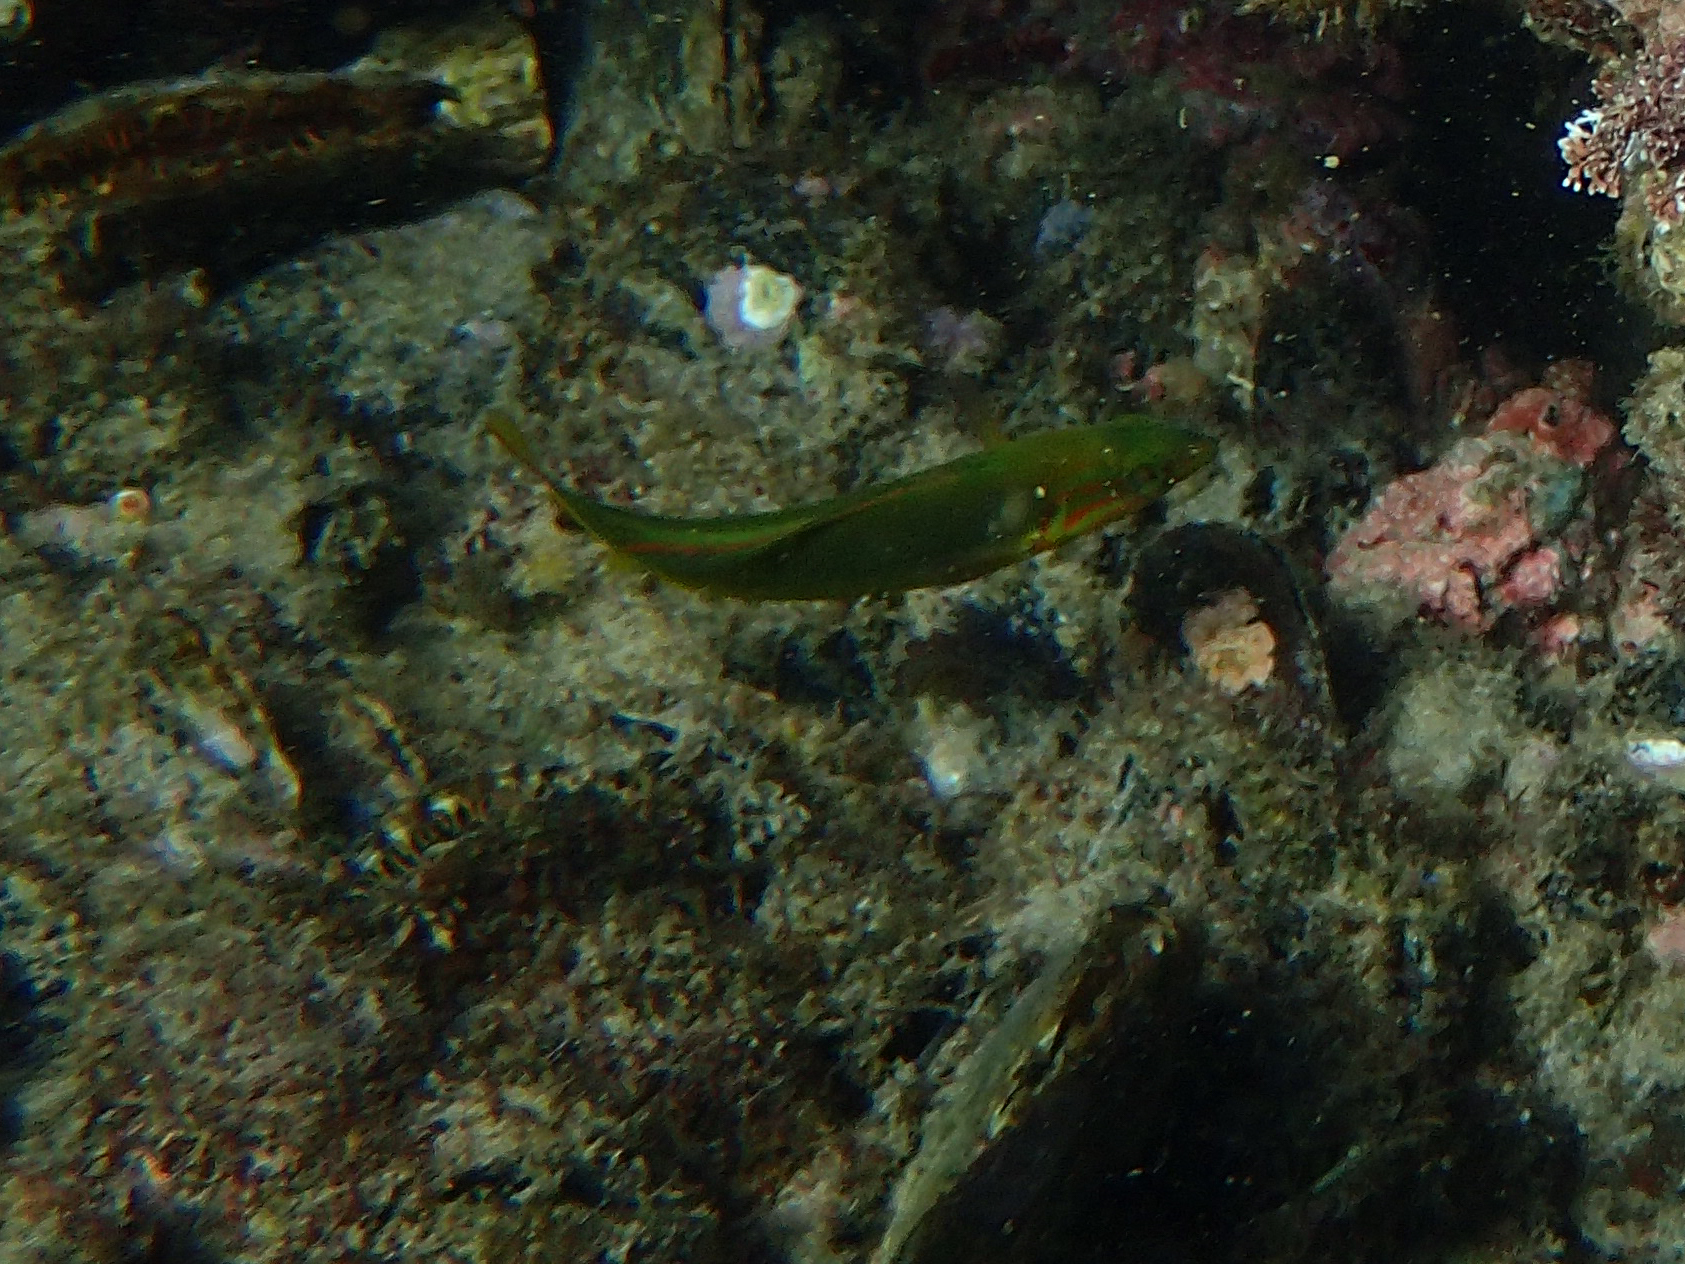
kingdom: Animalia
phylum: Chordata
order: Perciformes
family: Labridae
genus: Thalassoma
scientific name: Thalassoma lutescens
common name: Green moon wrasse
